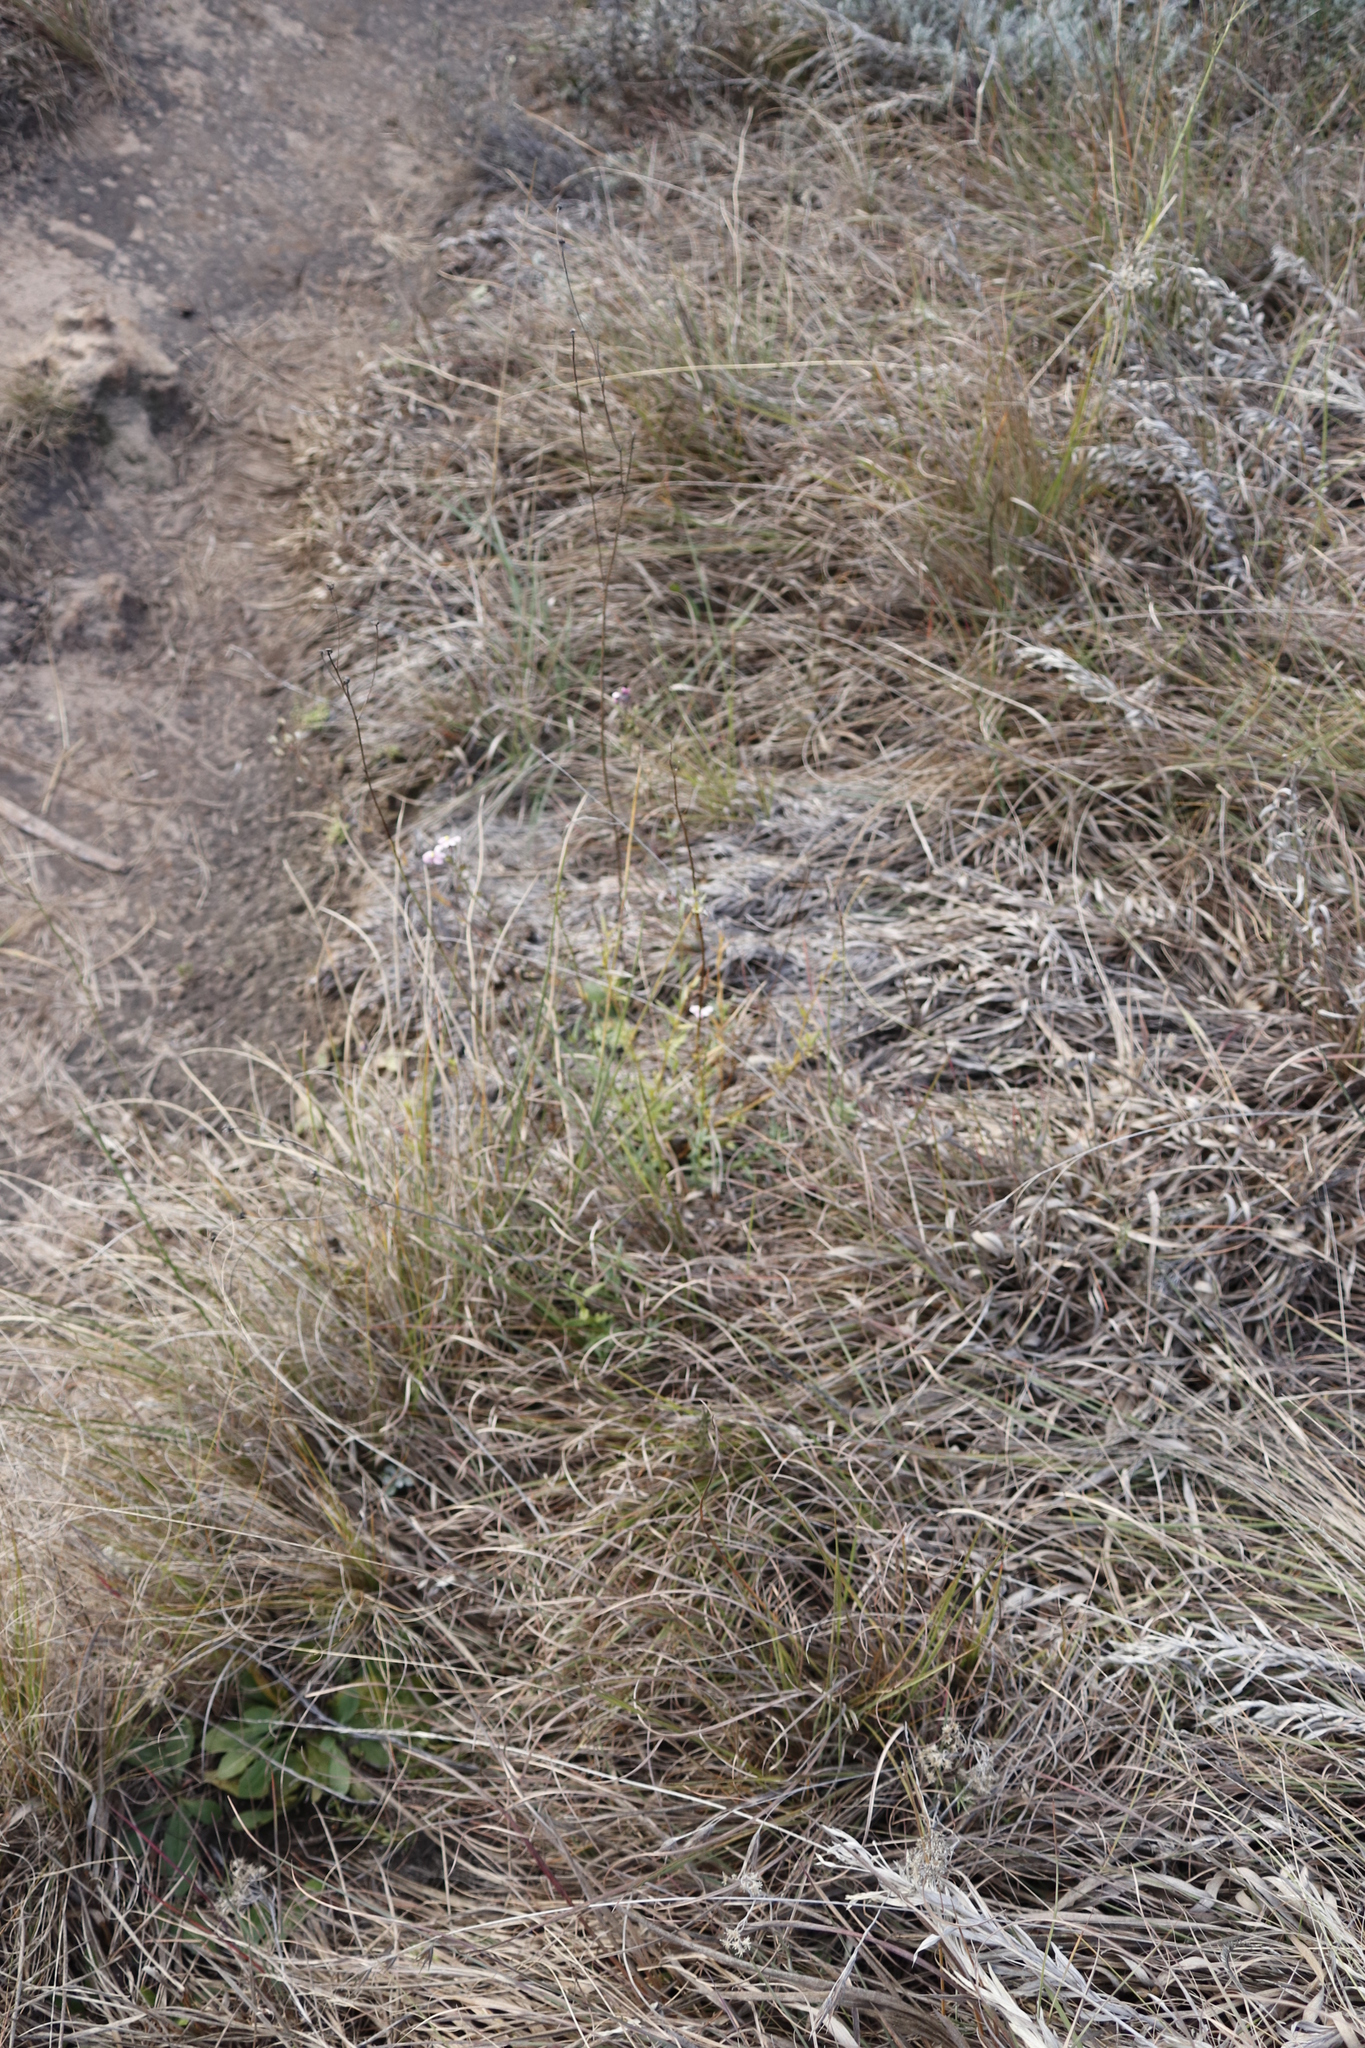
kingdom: Plantae
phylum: Tracheophyta
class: Magnoliopsida
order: Lamiales
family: Scrophulariaceae
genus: Nemesia
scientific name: Nemesia fruticans
